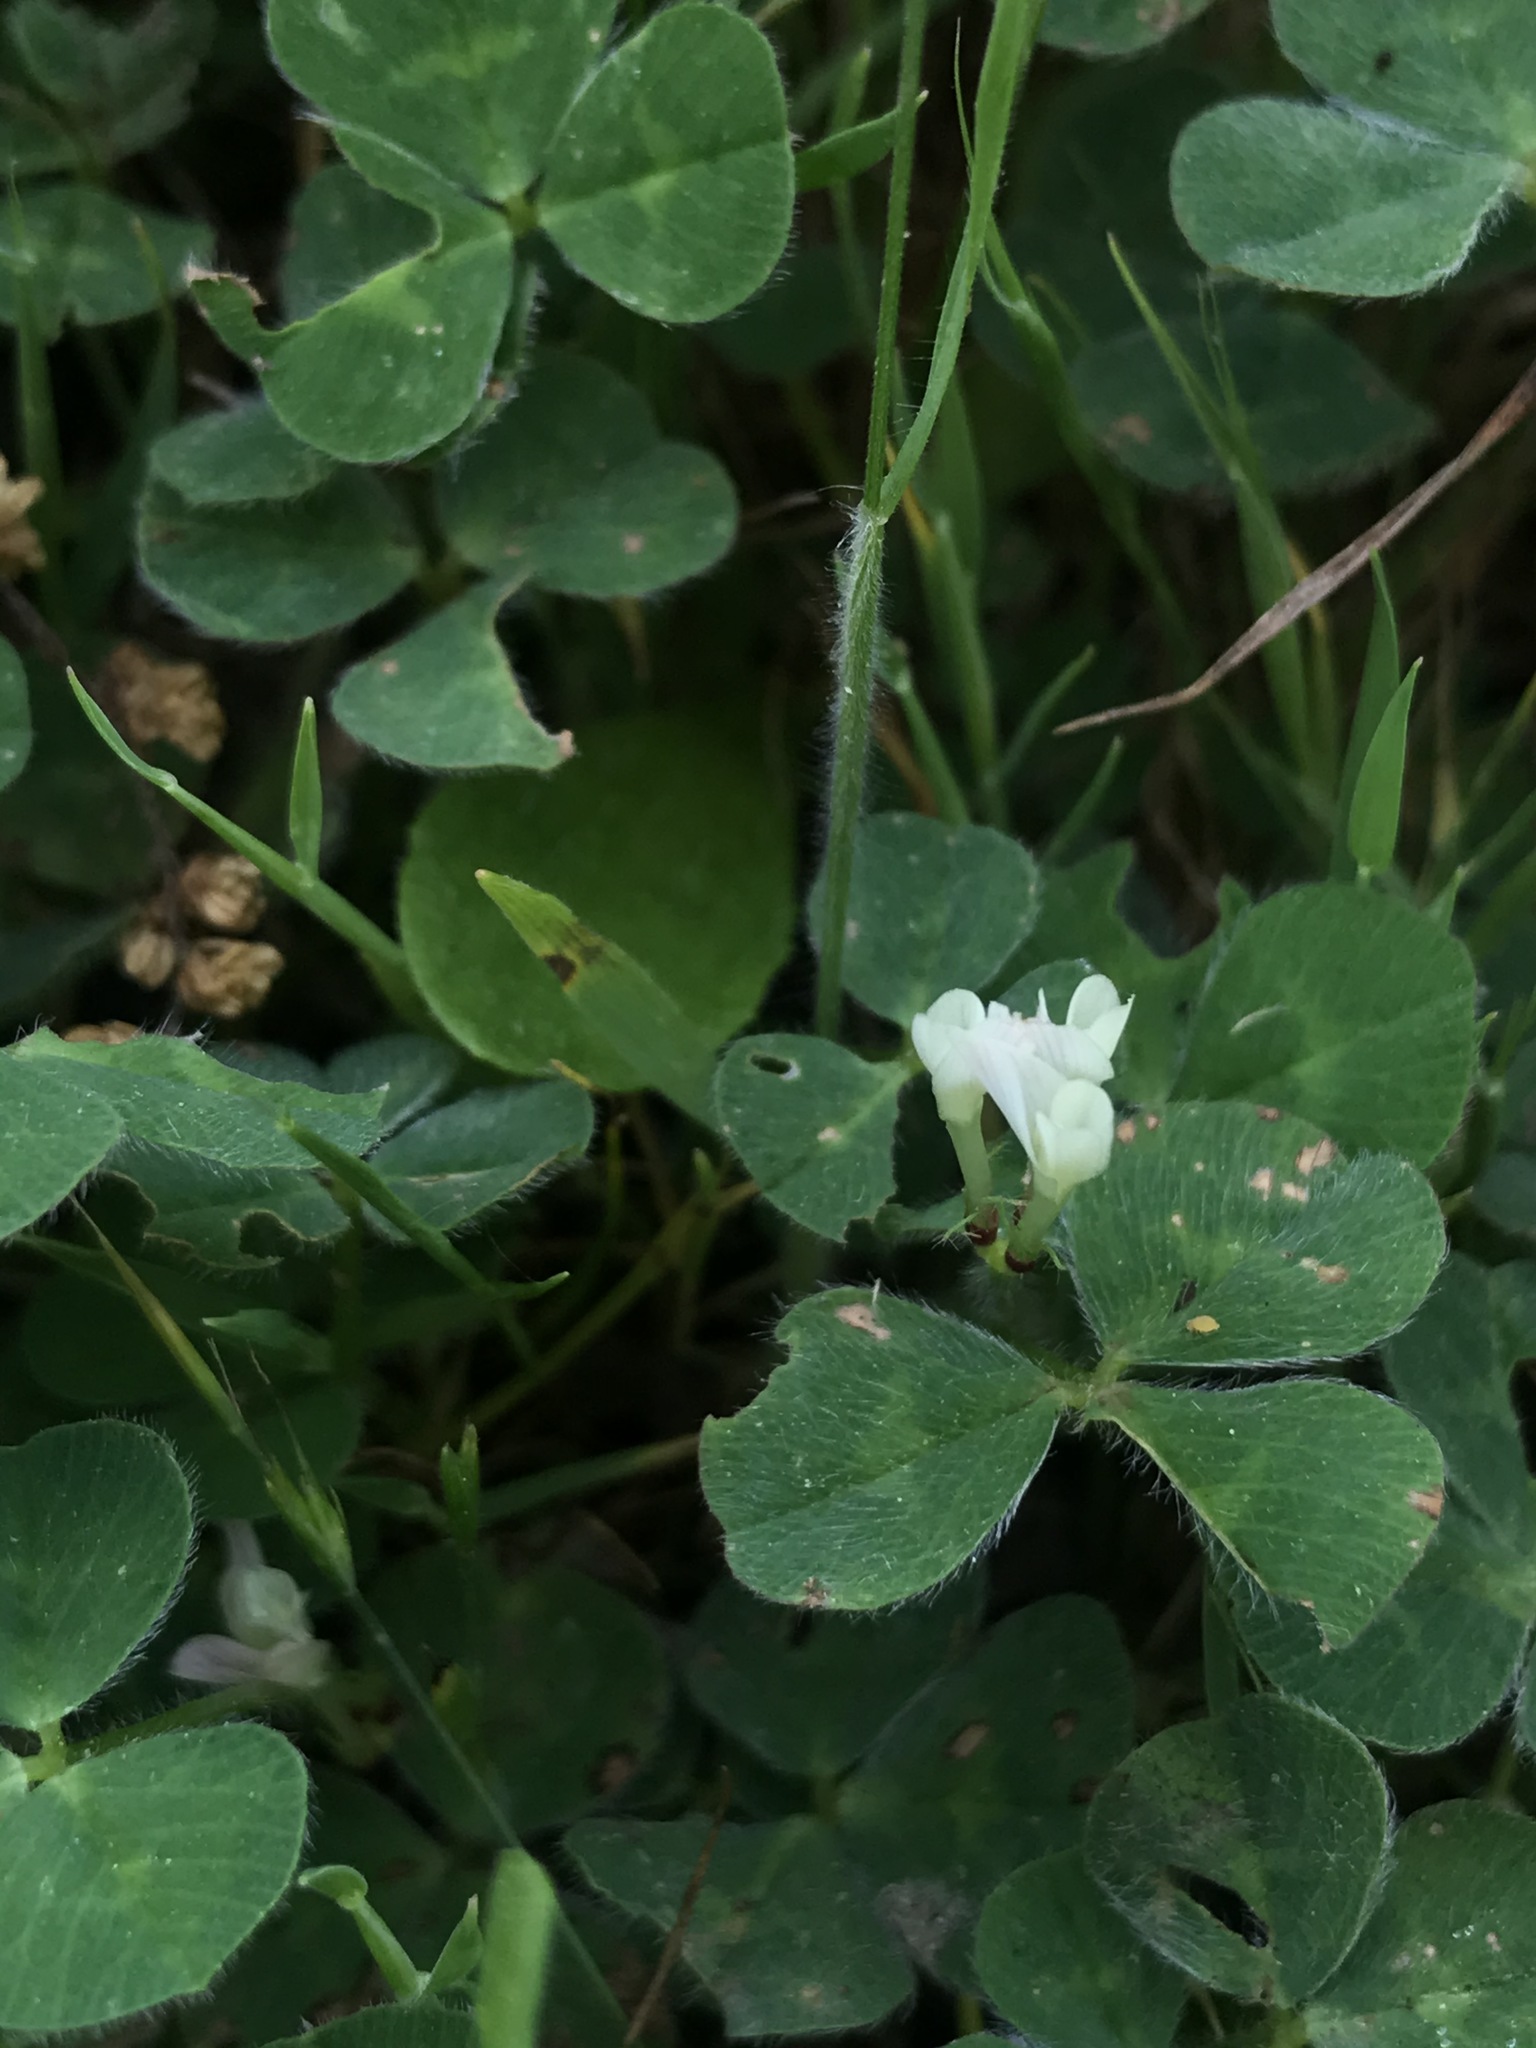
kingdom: Plantae
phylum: Tracheophyta
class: Magnoliopsida
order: Fabales
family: Fabaceae
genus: Trifolium
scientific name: Trifolium subterraneum
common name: Subterranean clover
